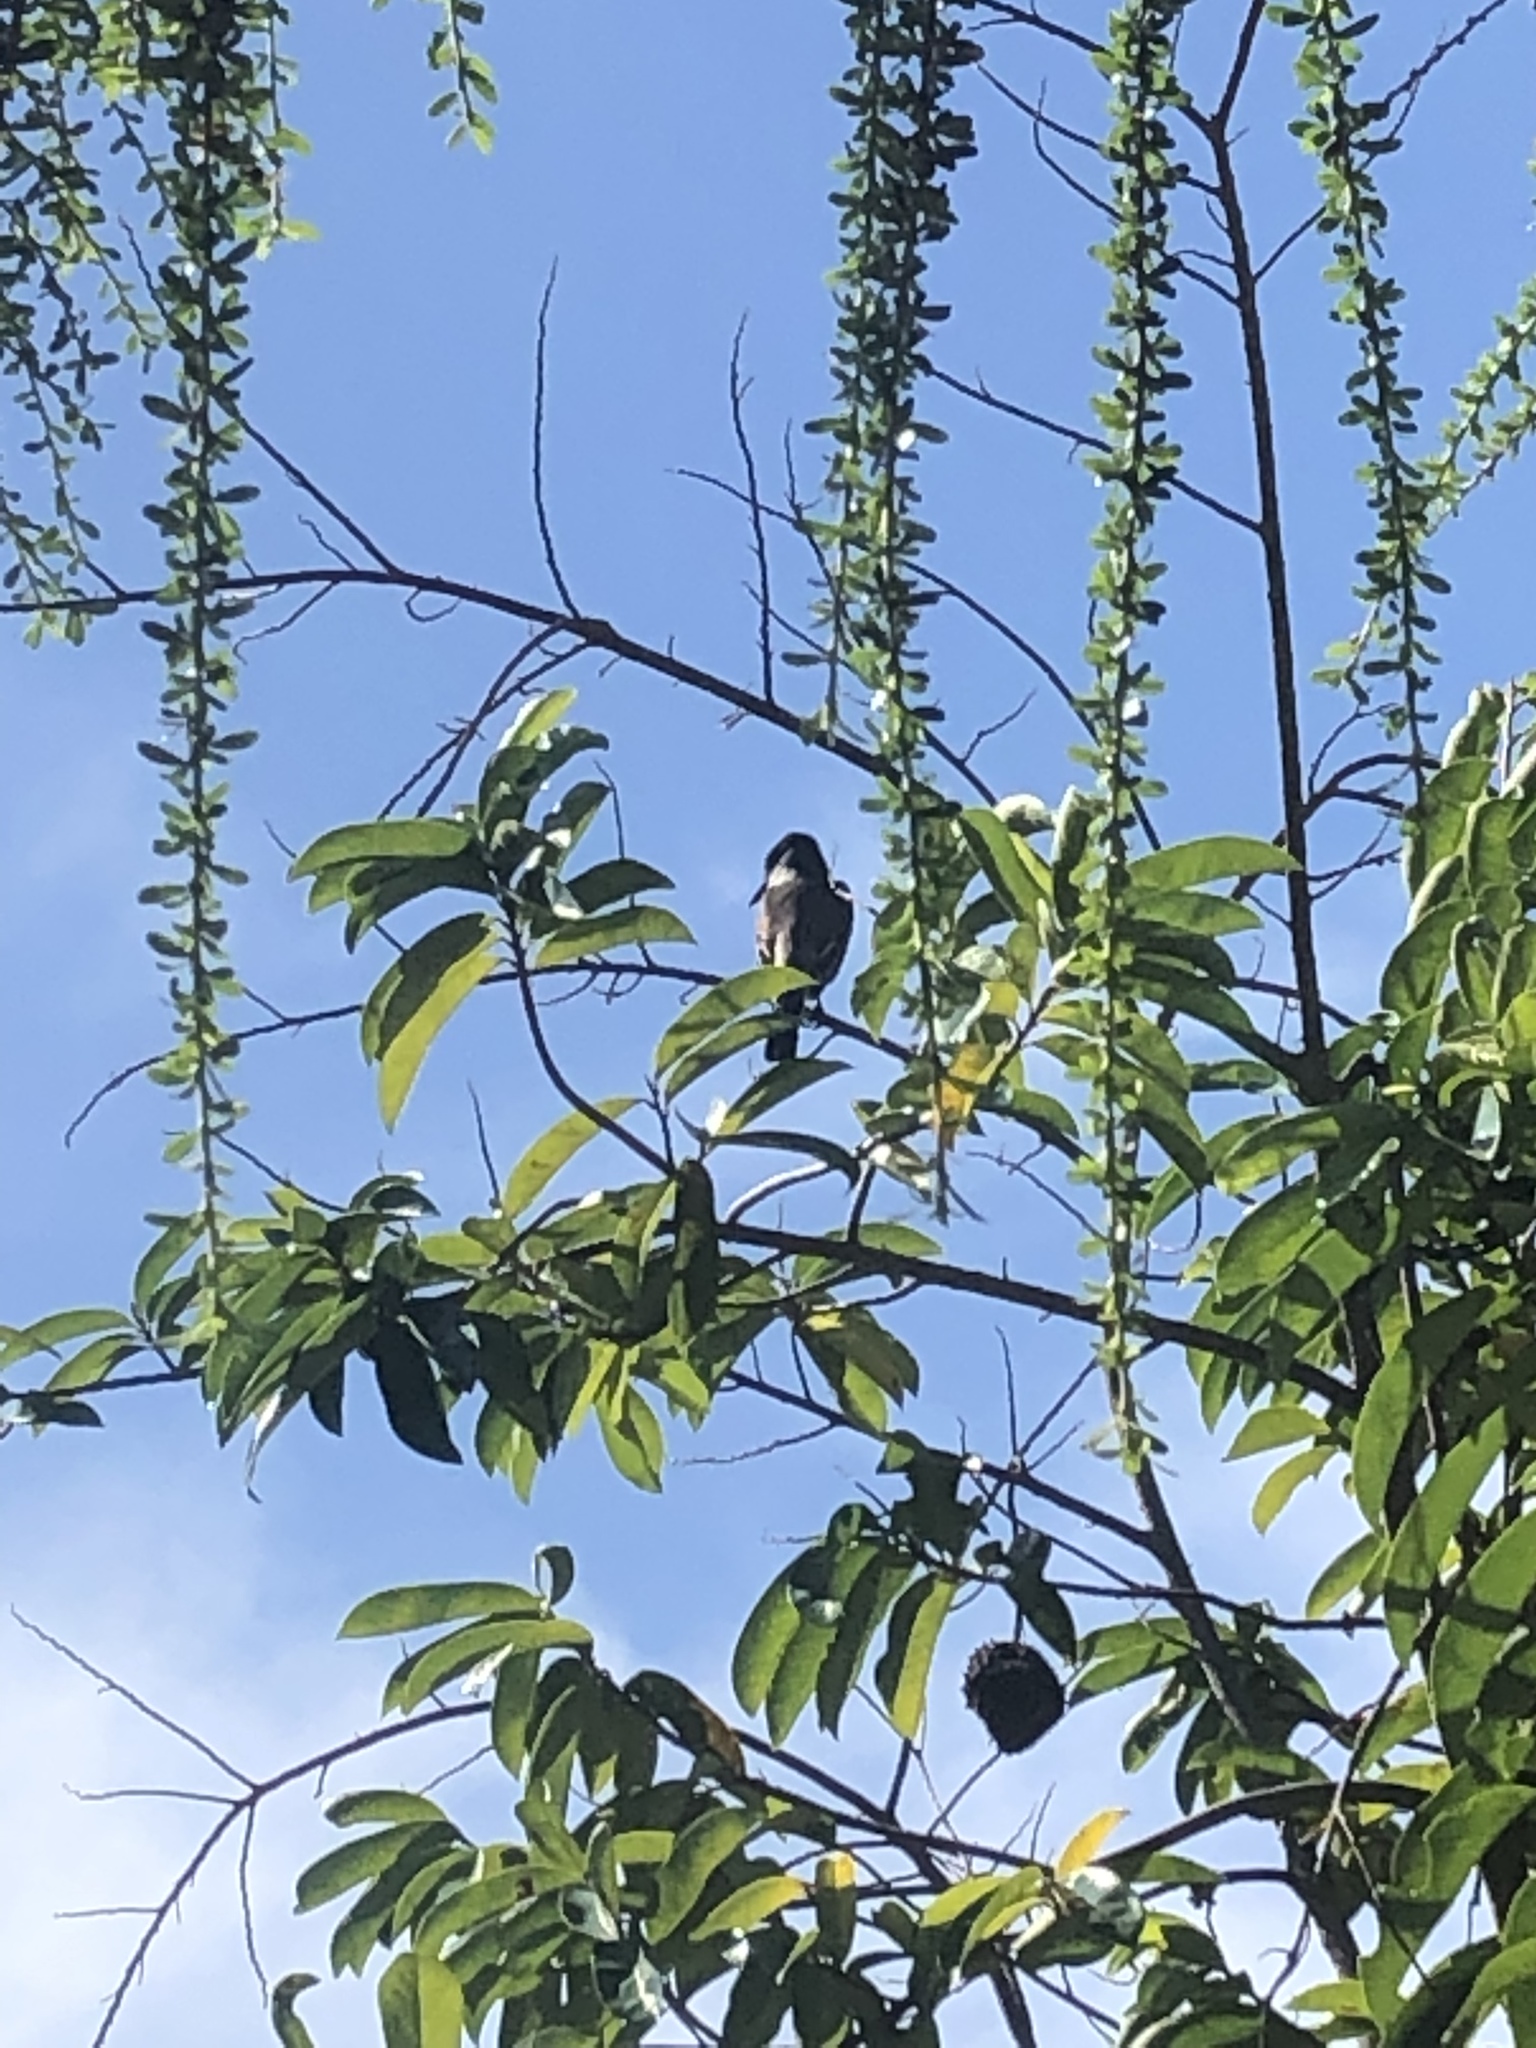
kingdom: Animalia
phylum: Chordata
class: Aves
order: Passeriformes
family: Tyrannidae
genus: Tyrannus
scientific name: Tyrannus caudifasciatus
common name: Loggerhead kingbird
